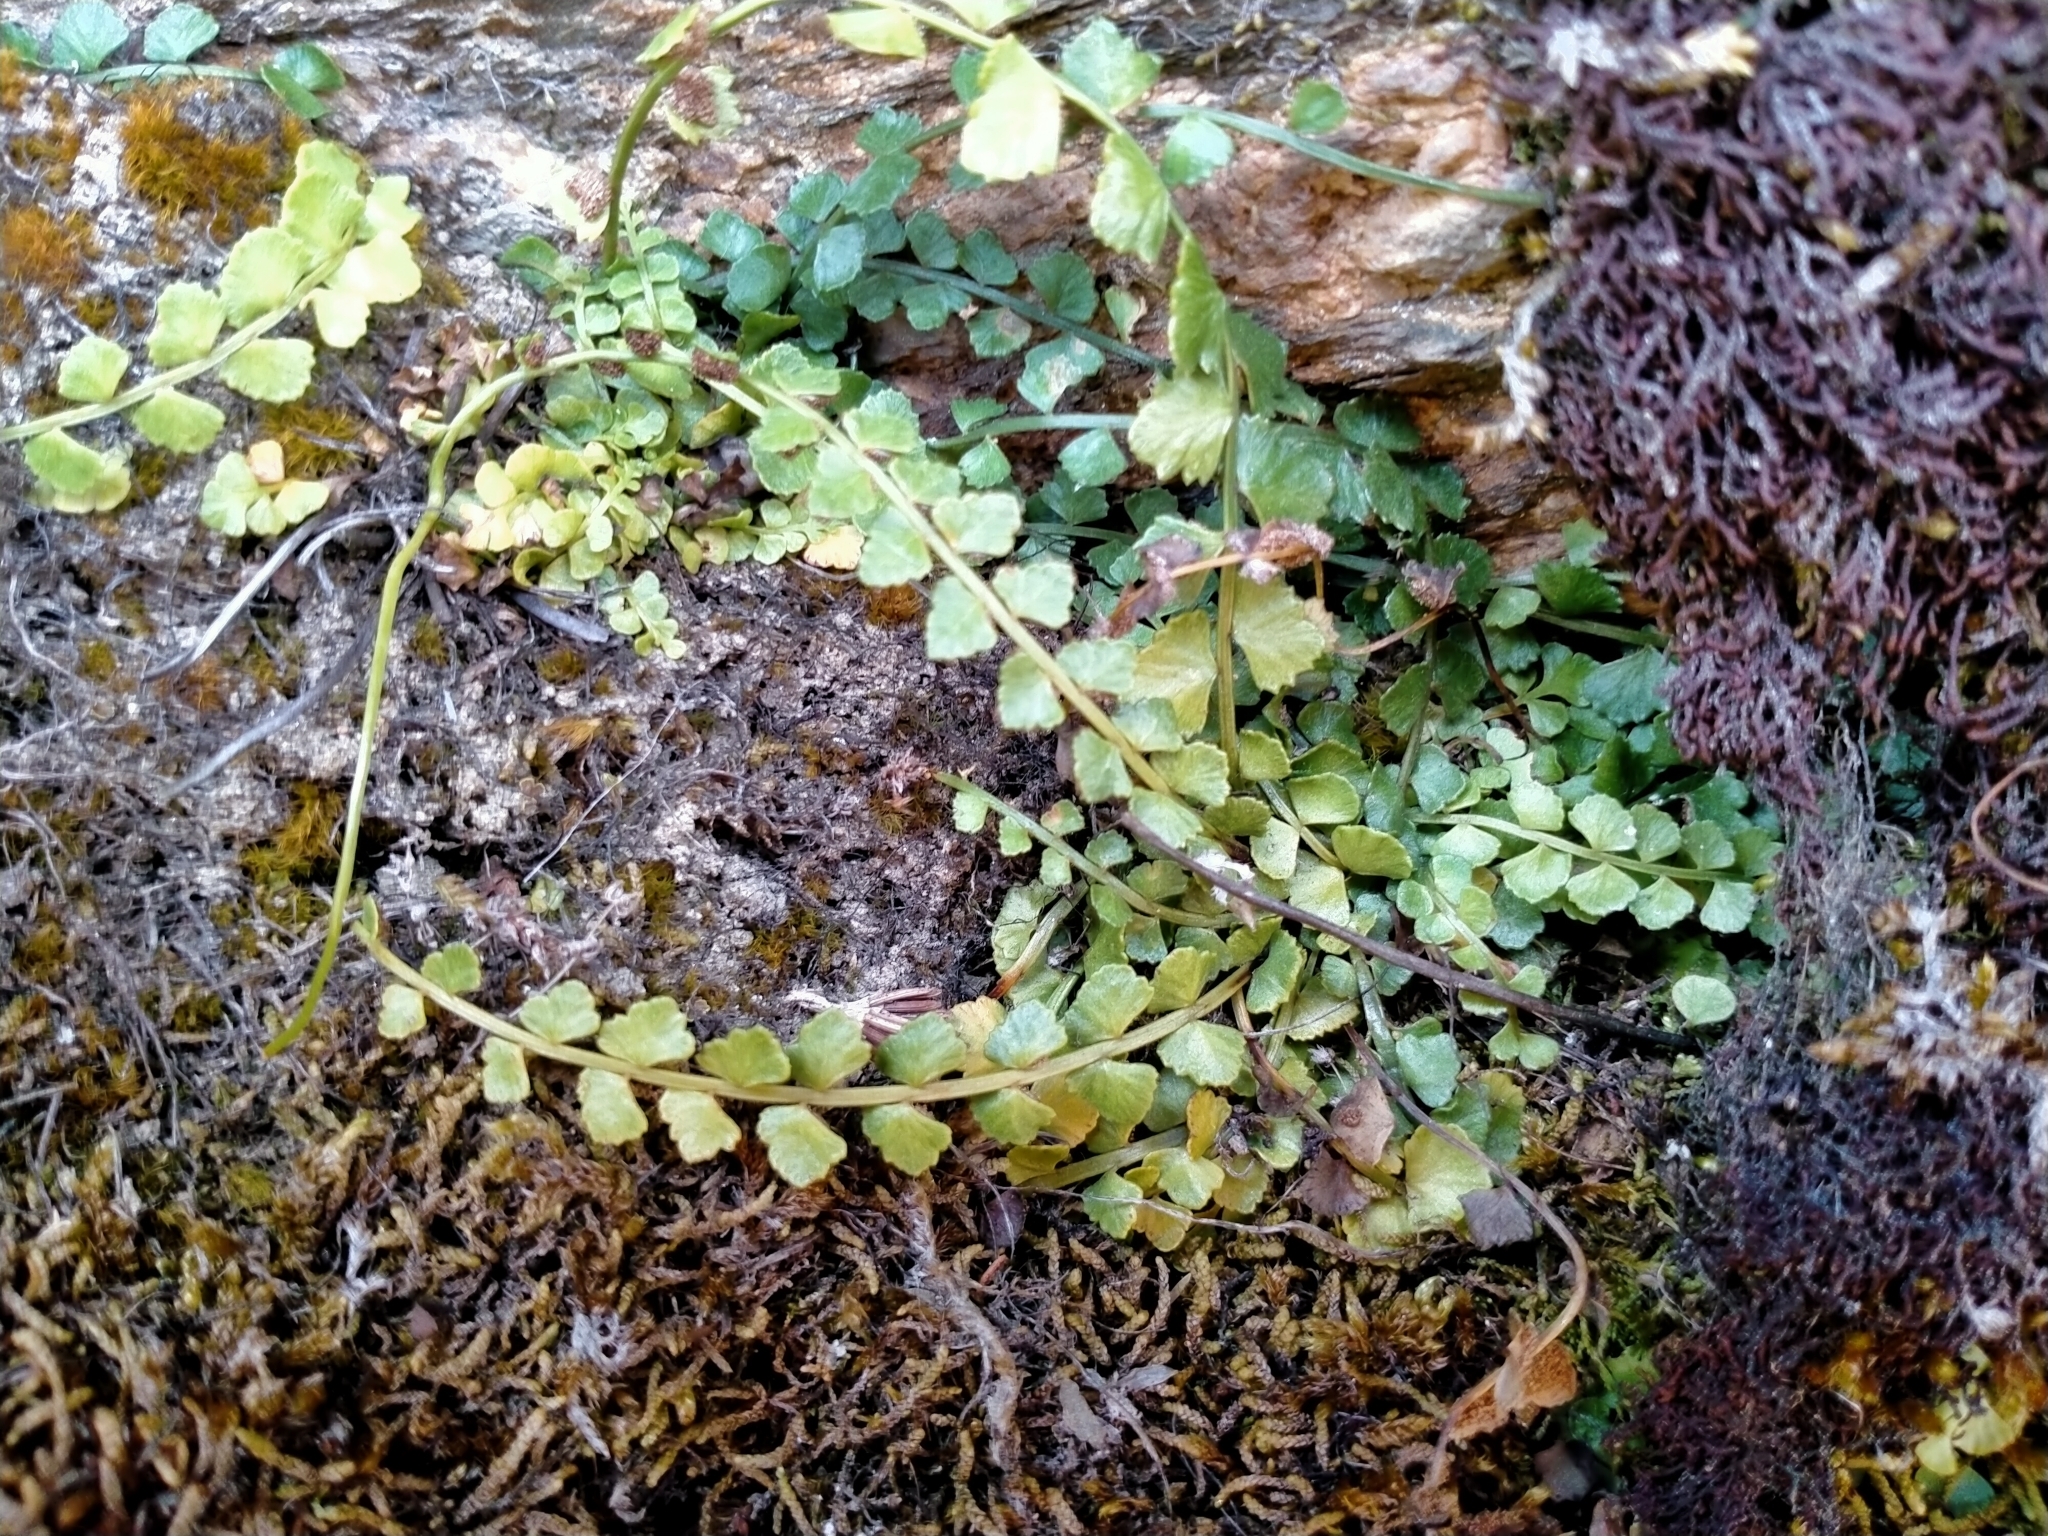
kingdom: Plantae
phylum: Tracheophyta
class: Polypodiopsida
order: Polypodiales
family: Aspleniaceae
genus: Asplenium
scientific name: Asplenium flabellifolium
